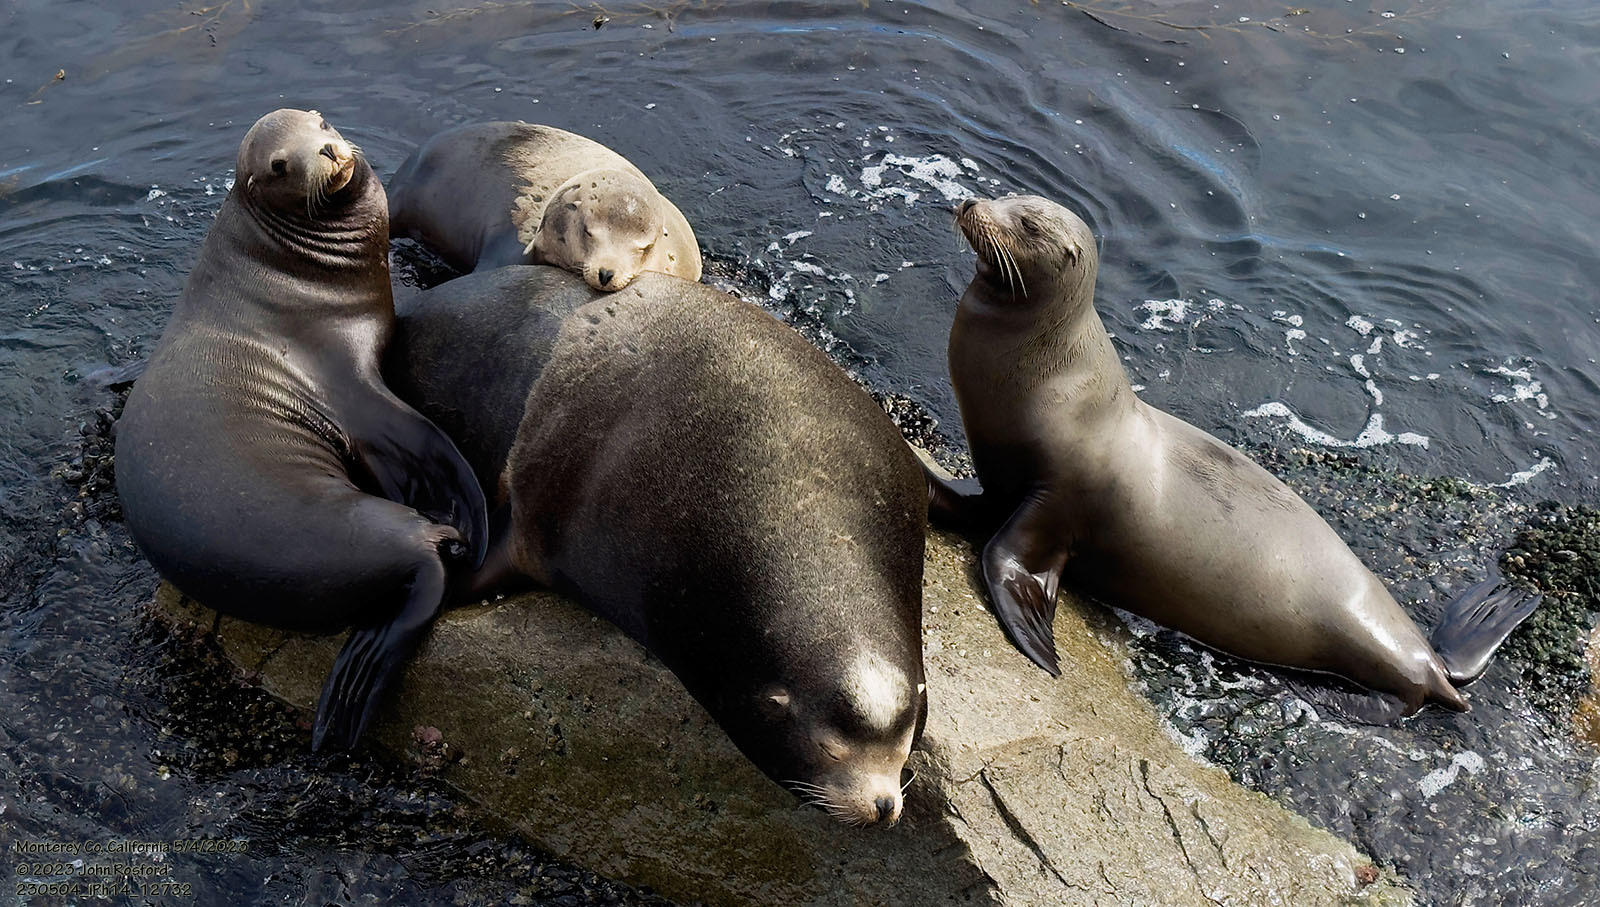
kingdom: Animalia
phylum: Chordata
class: Mammalia
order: Carnivora
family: Otariidae
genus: Zalophus
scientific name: Zalophus californianus
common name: California sea lion
